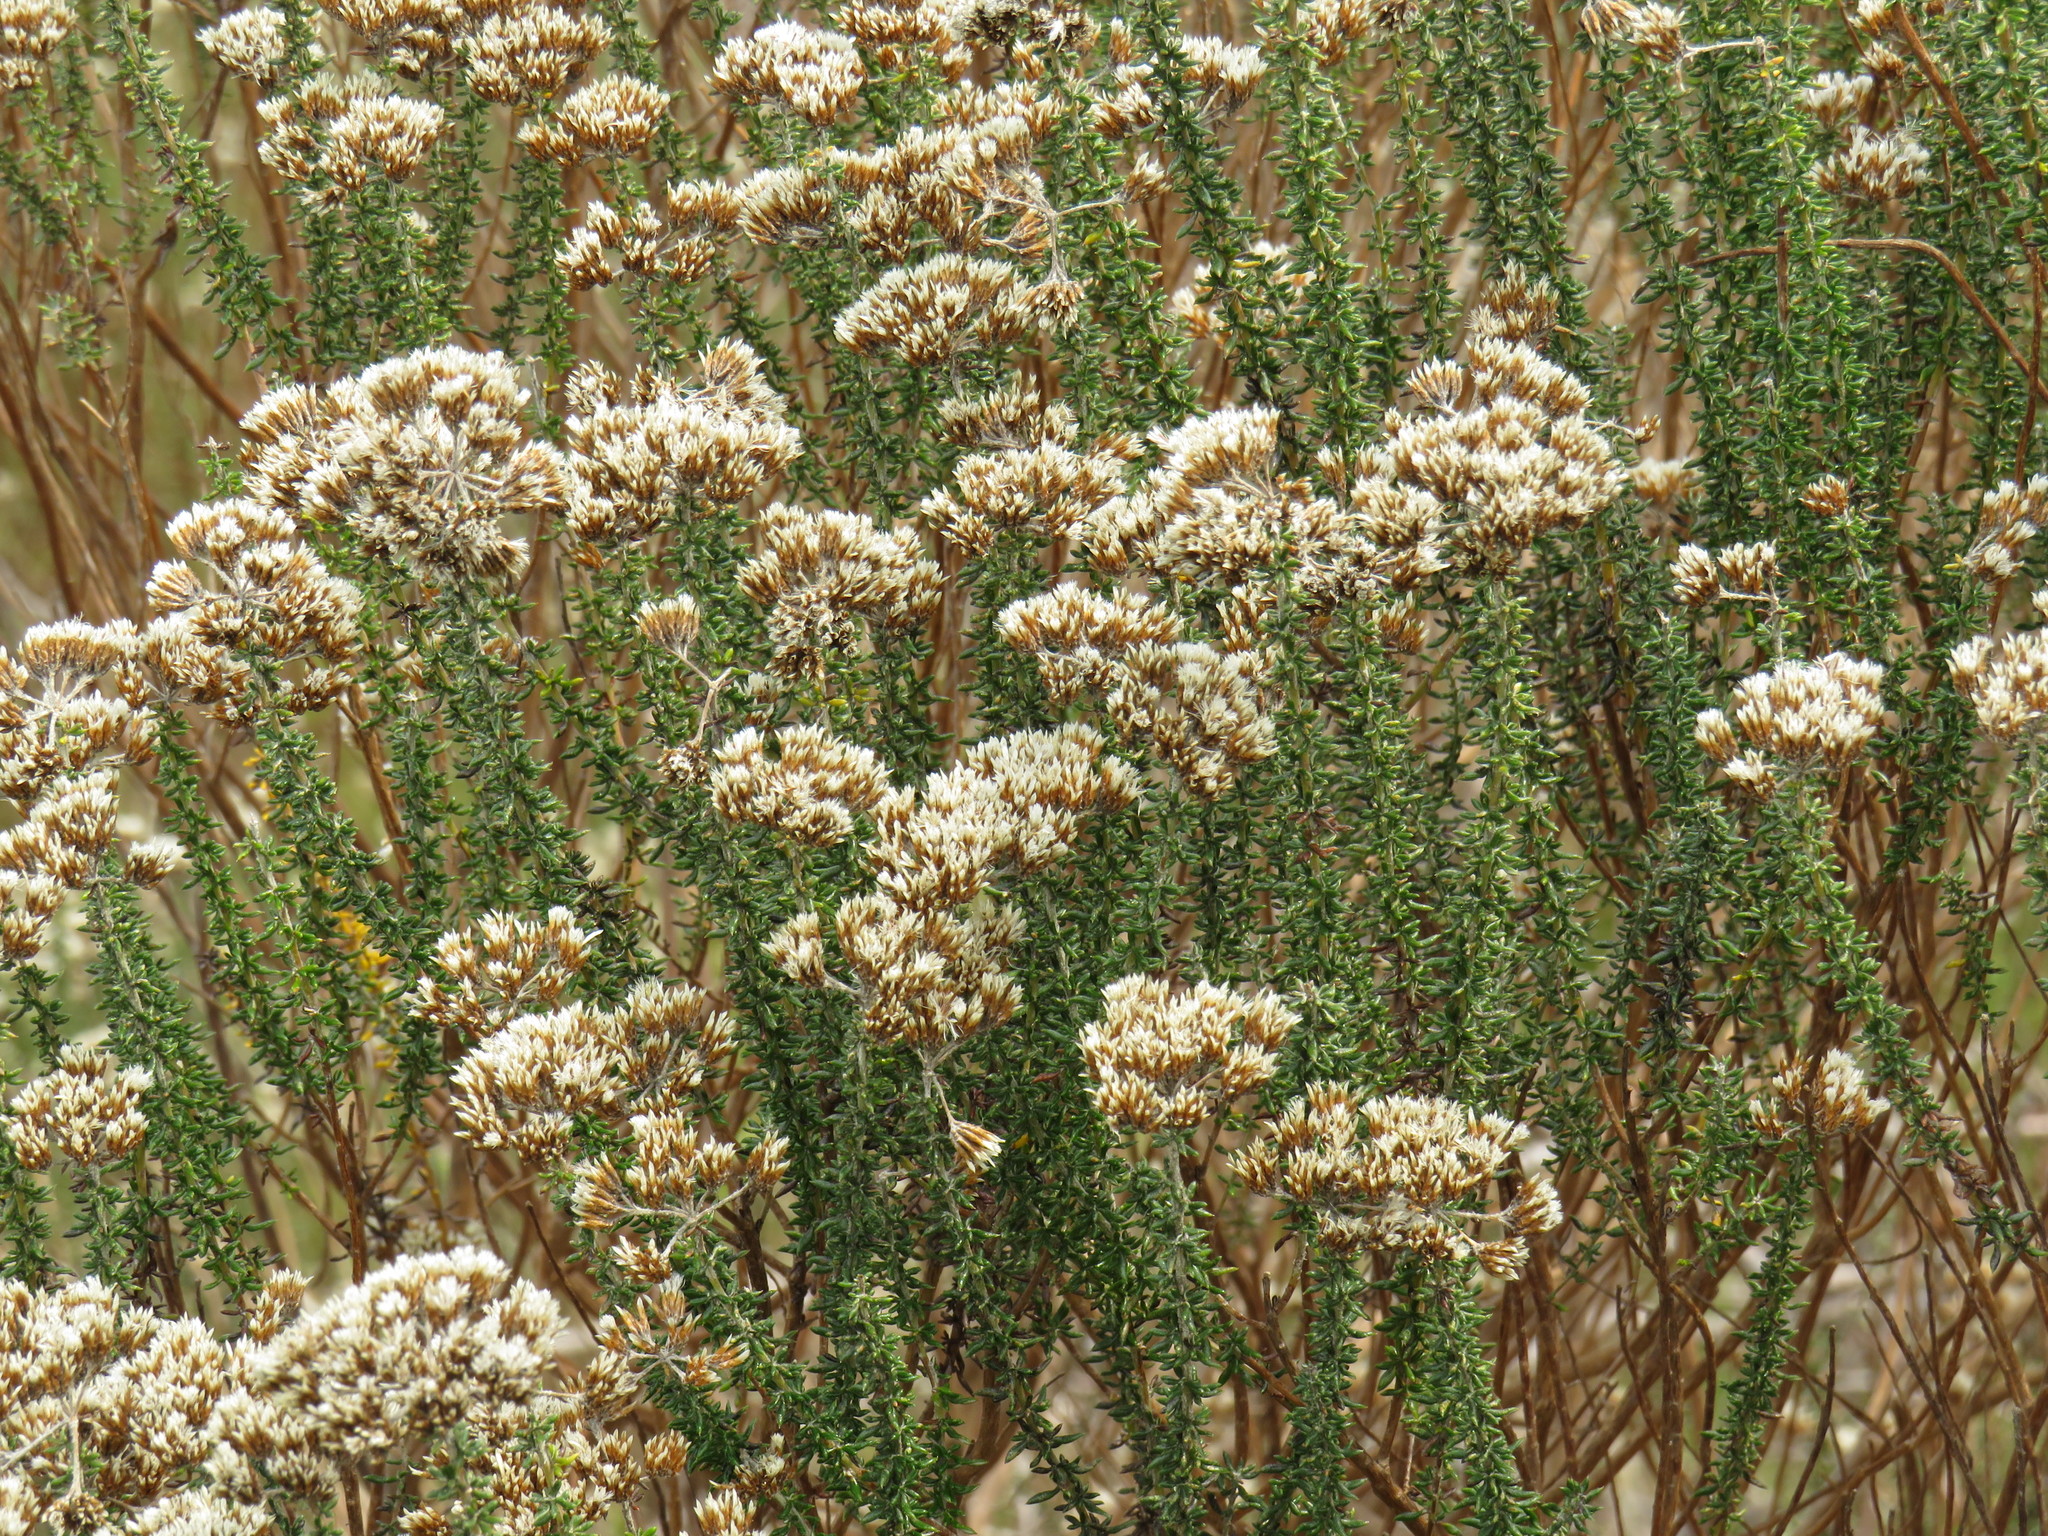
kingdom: Plantae
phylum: Tracheophyta
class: Magnoliopsida
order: Asterales
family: Asteraceae
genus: Metalasia
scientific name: Metalasia densa
